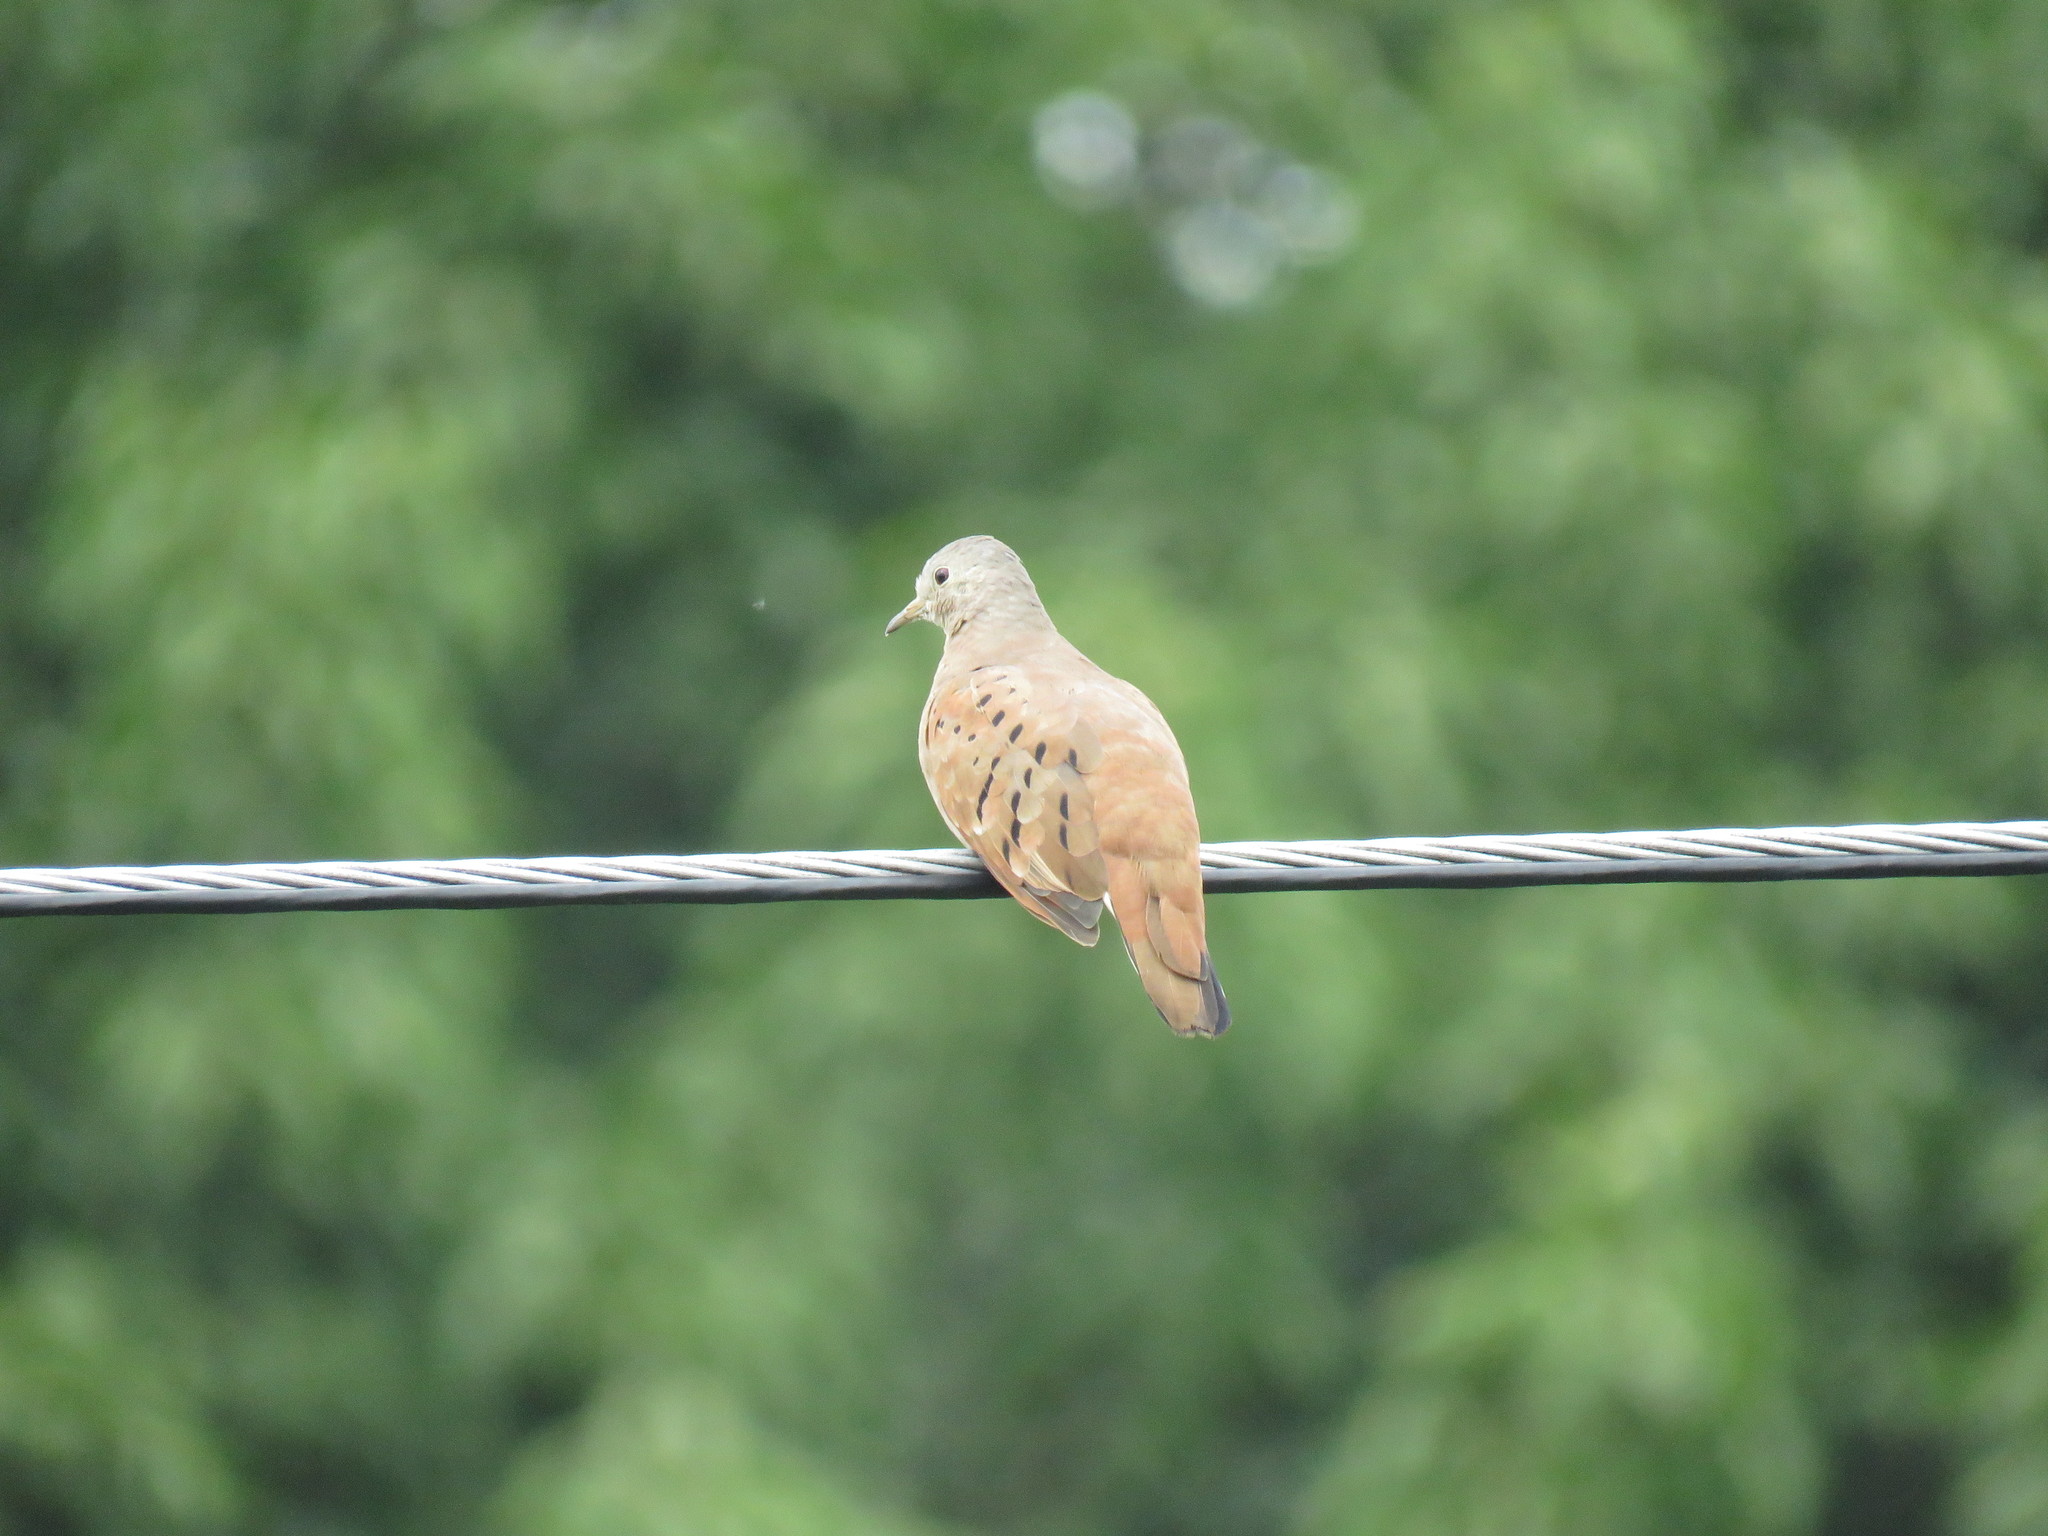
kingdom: Animalia
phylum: Chordata
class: Aves
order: Columbiformes
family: Columbidae
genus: Columbina
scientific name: Columbina talpacoti
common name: Ruddy ground dove
